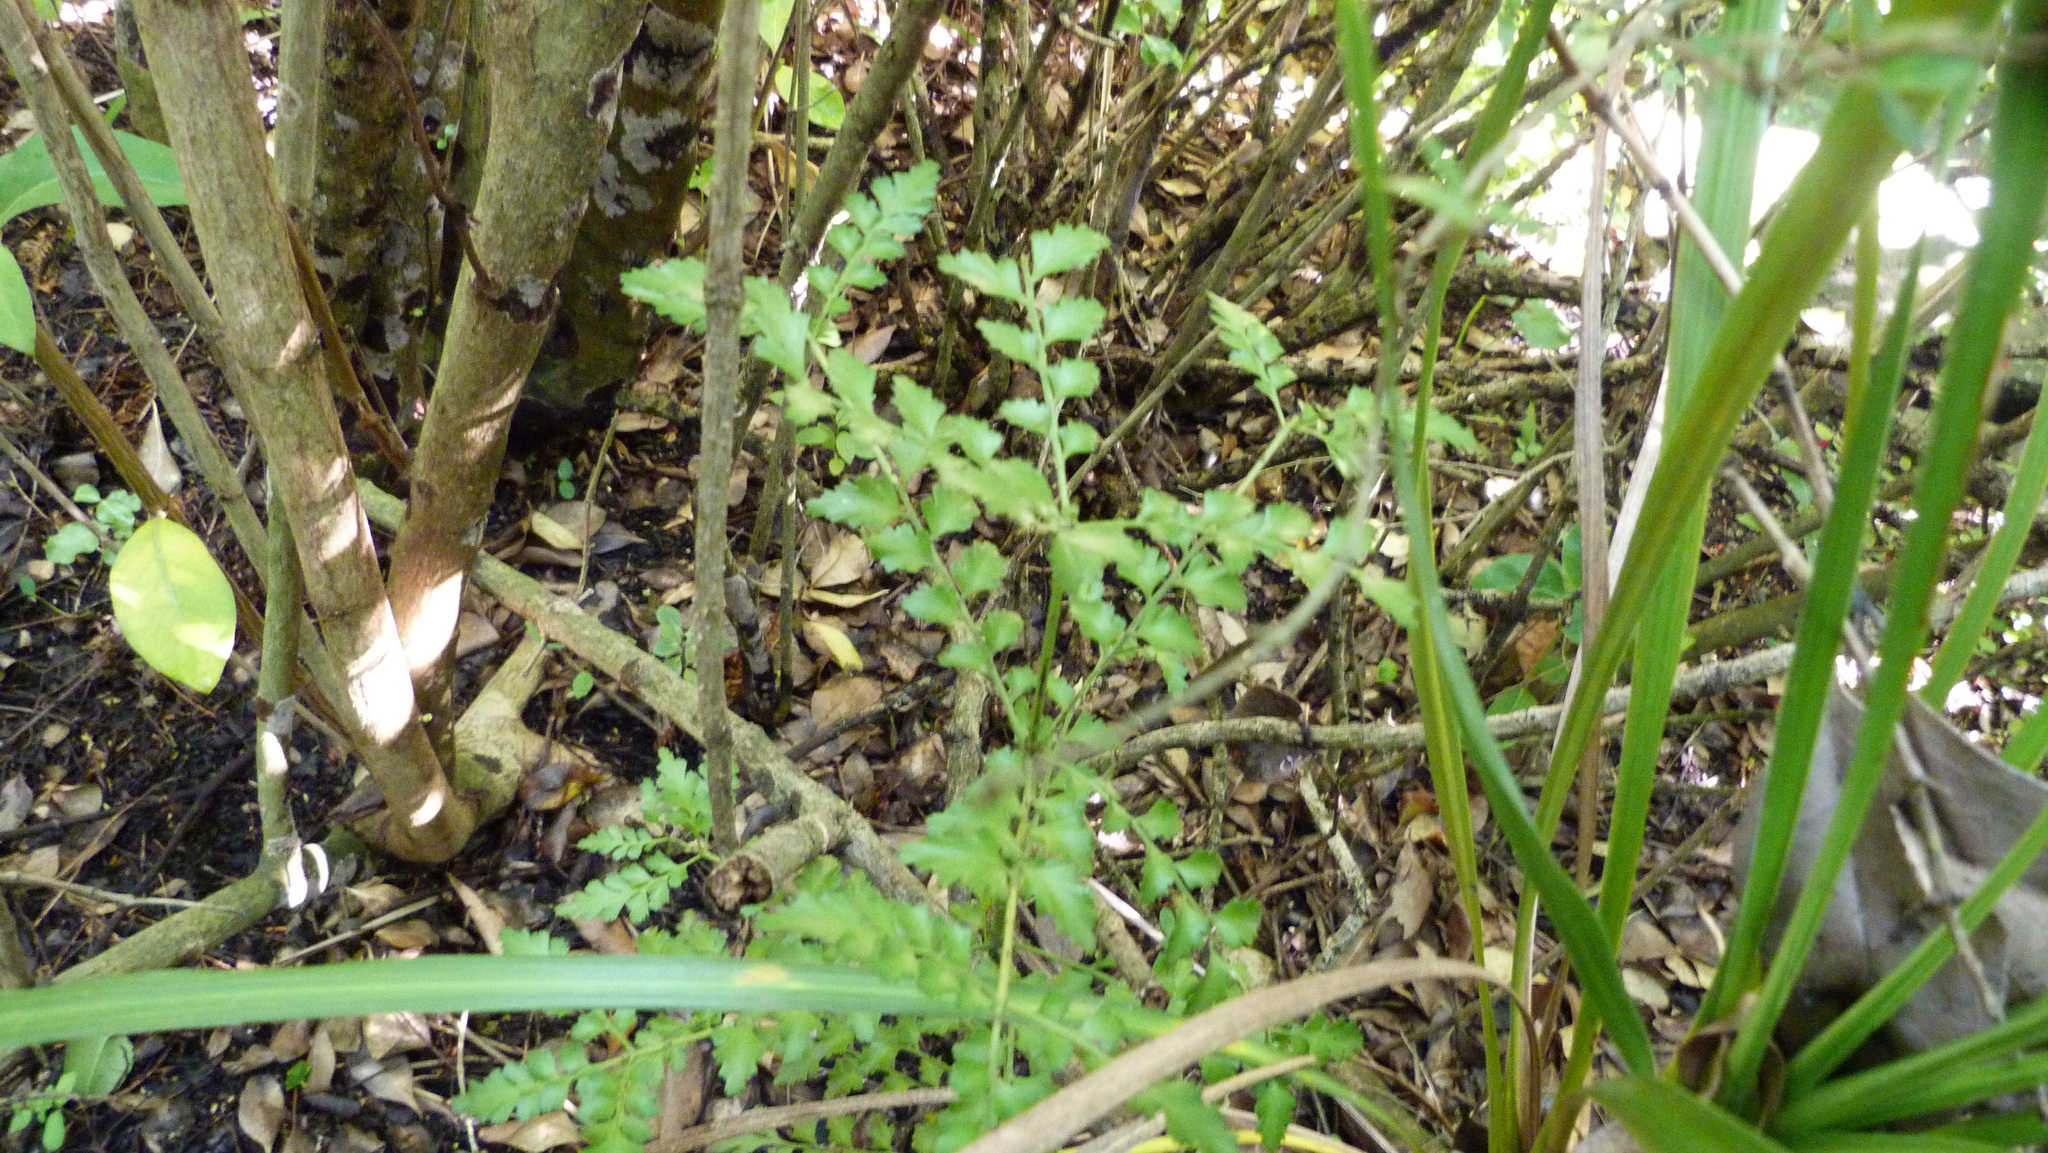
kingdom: Plantae
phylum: Tracheophyta
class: Pinopsida
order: Pinales
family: Phyllocladaceae
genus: Phyllocladus
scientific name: Phyllocladus trichomanoides
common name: Celery pine
